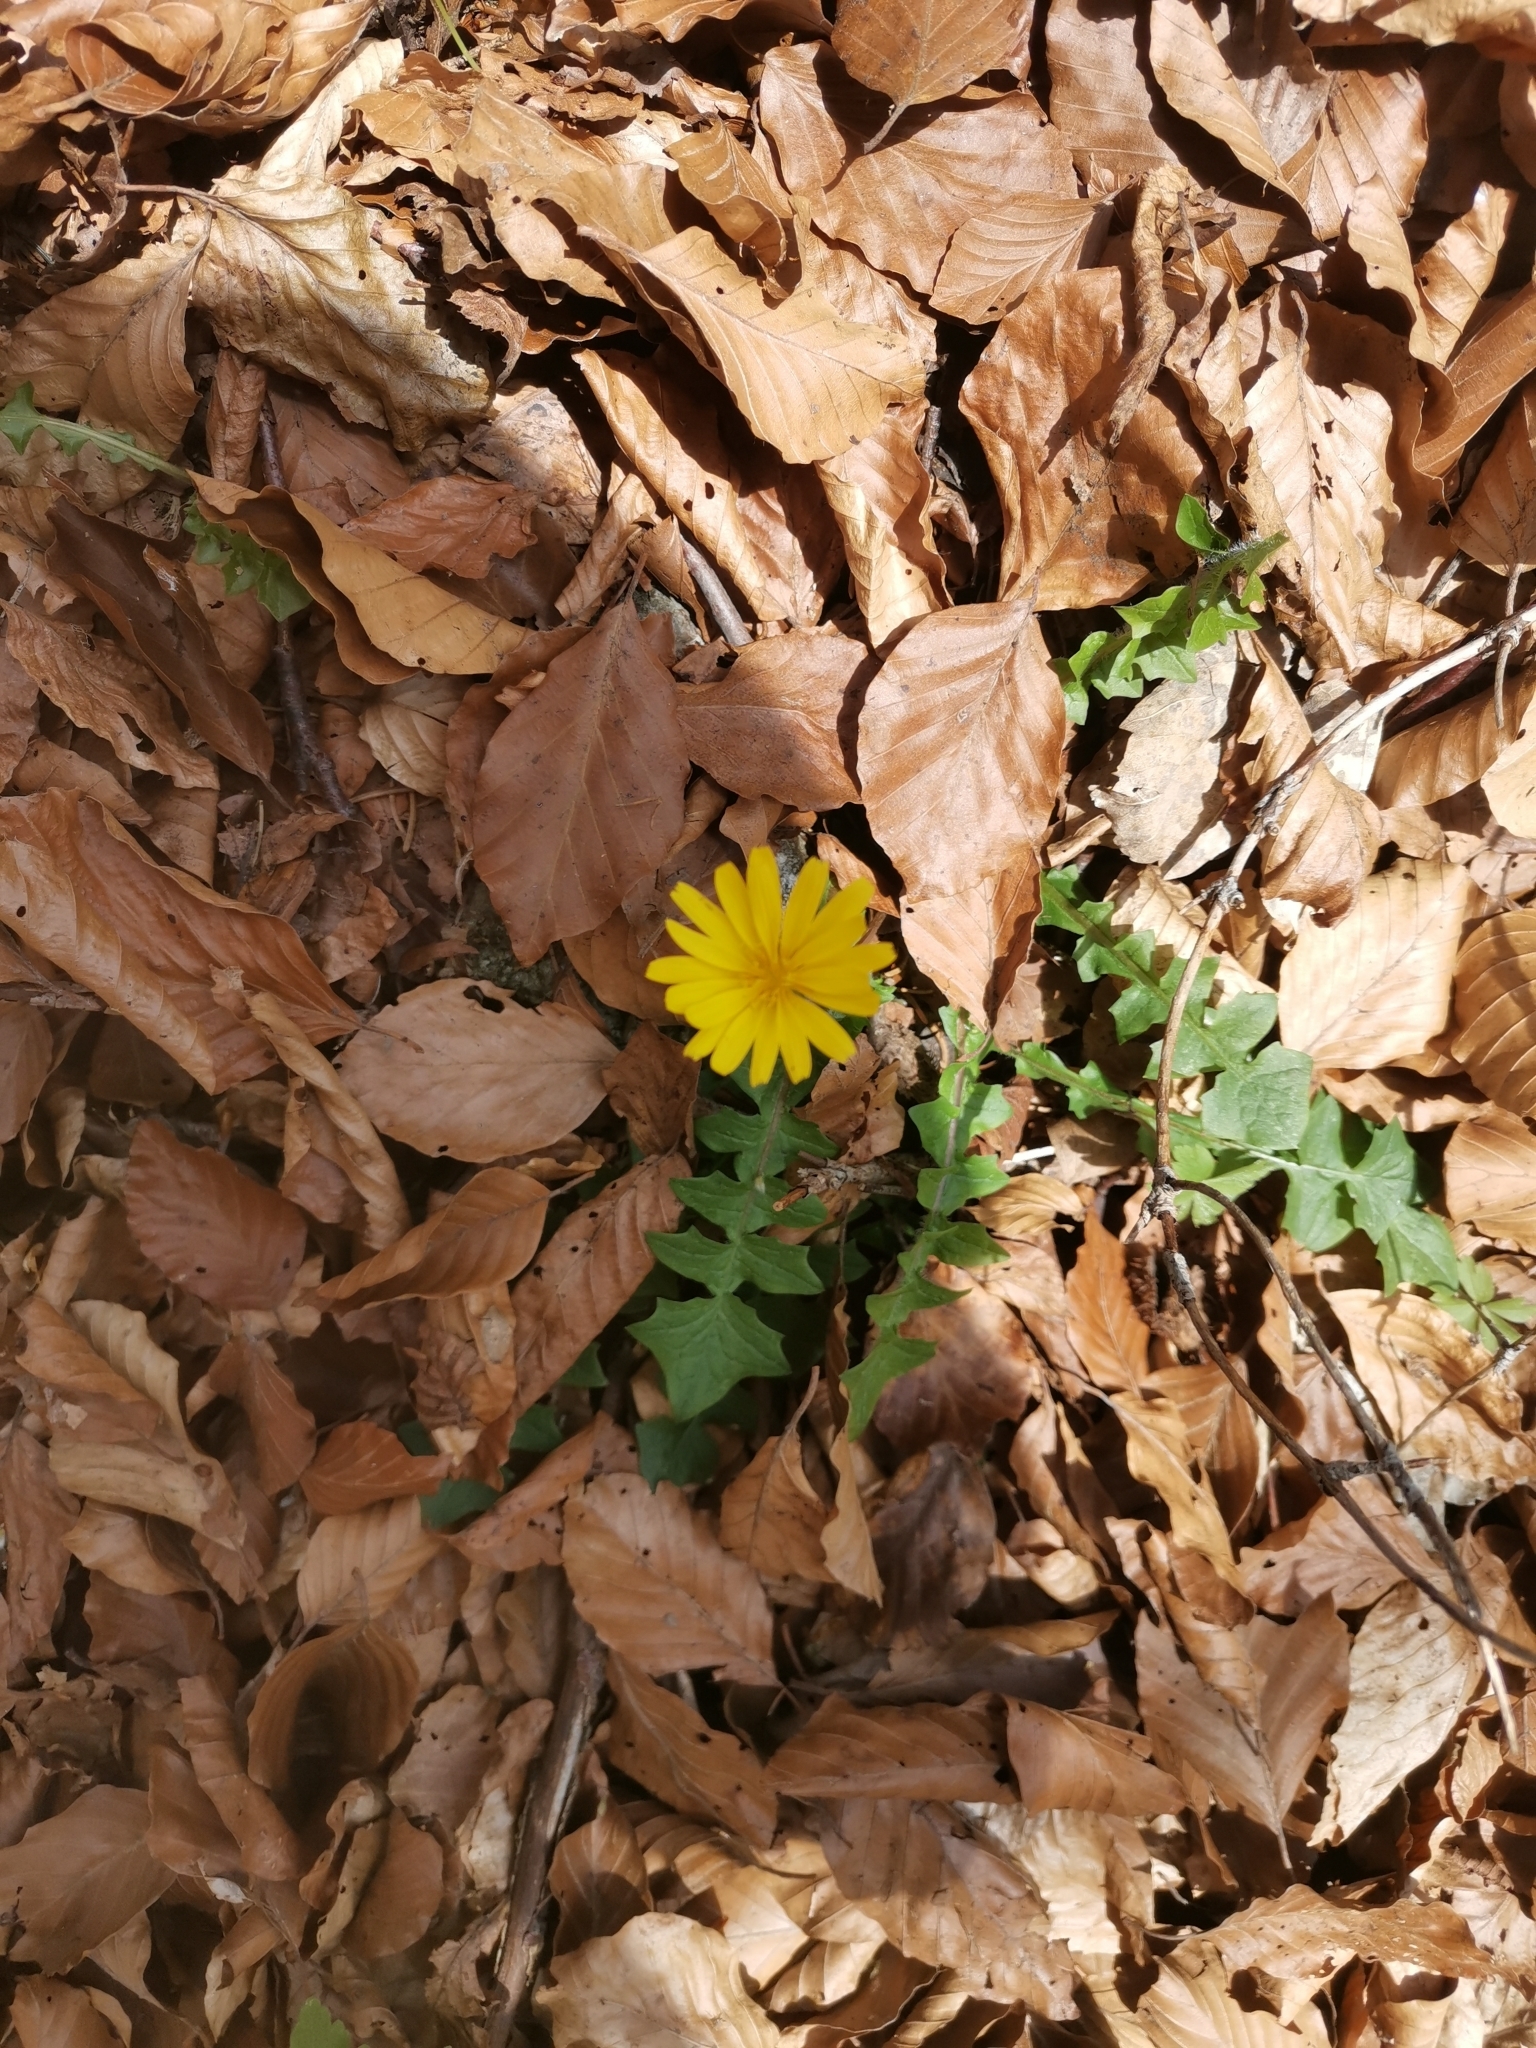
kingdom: Plantae
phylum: Tracheophyta
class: Magnoliopsida
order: Asterales
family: Asteraceae
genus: Aposeris
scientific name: Aposeris foetida
